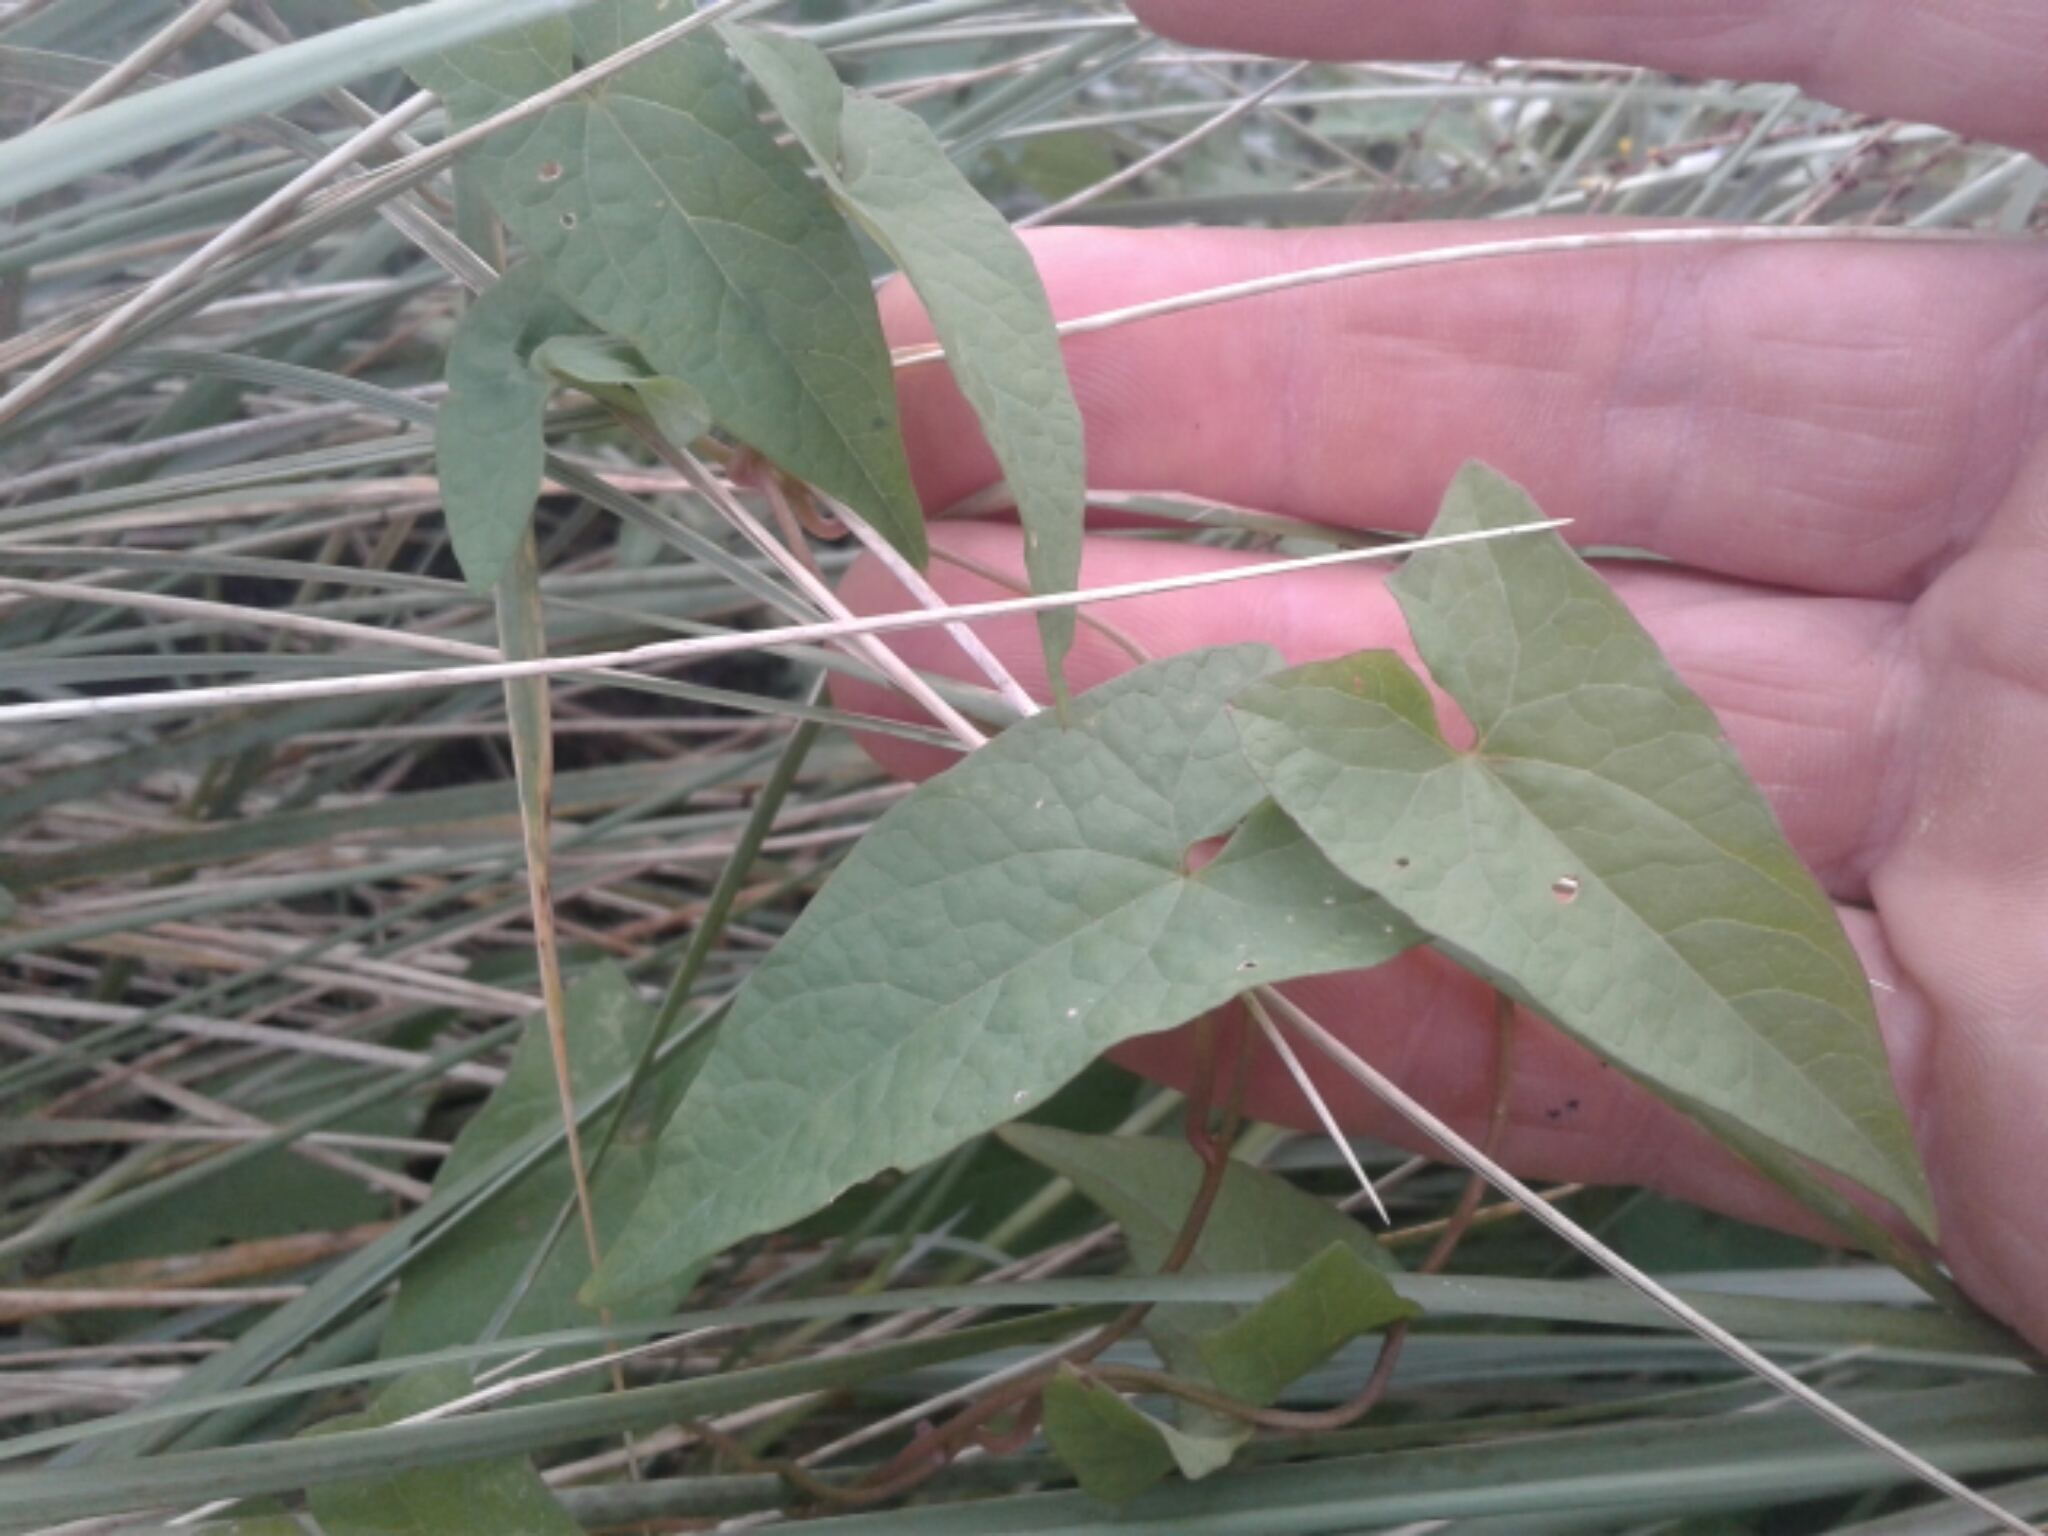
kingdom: Plantae
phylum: Tracheophyta
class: Magnoliopsida
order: Solanales
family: Convolvulaceae
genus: Calystegia
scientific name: Calystegia
